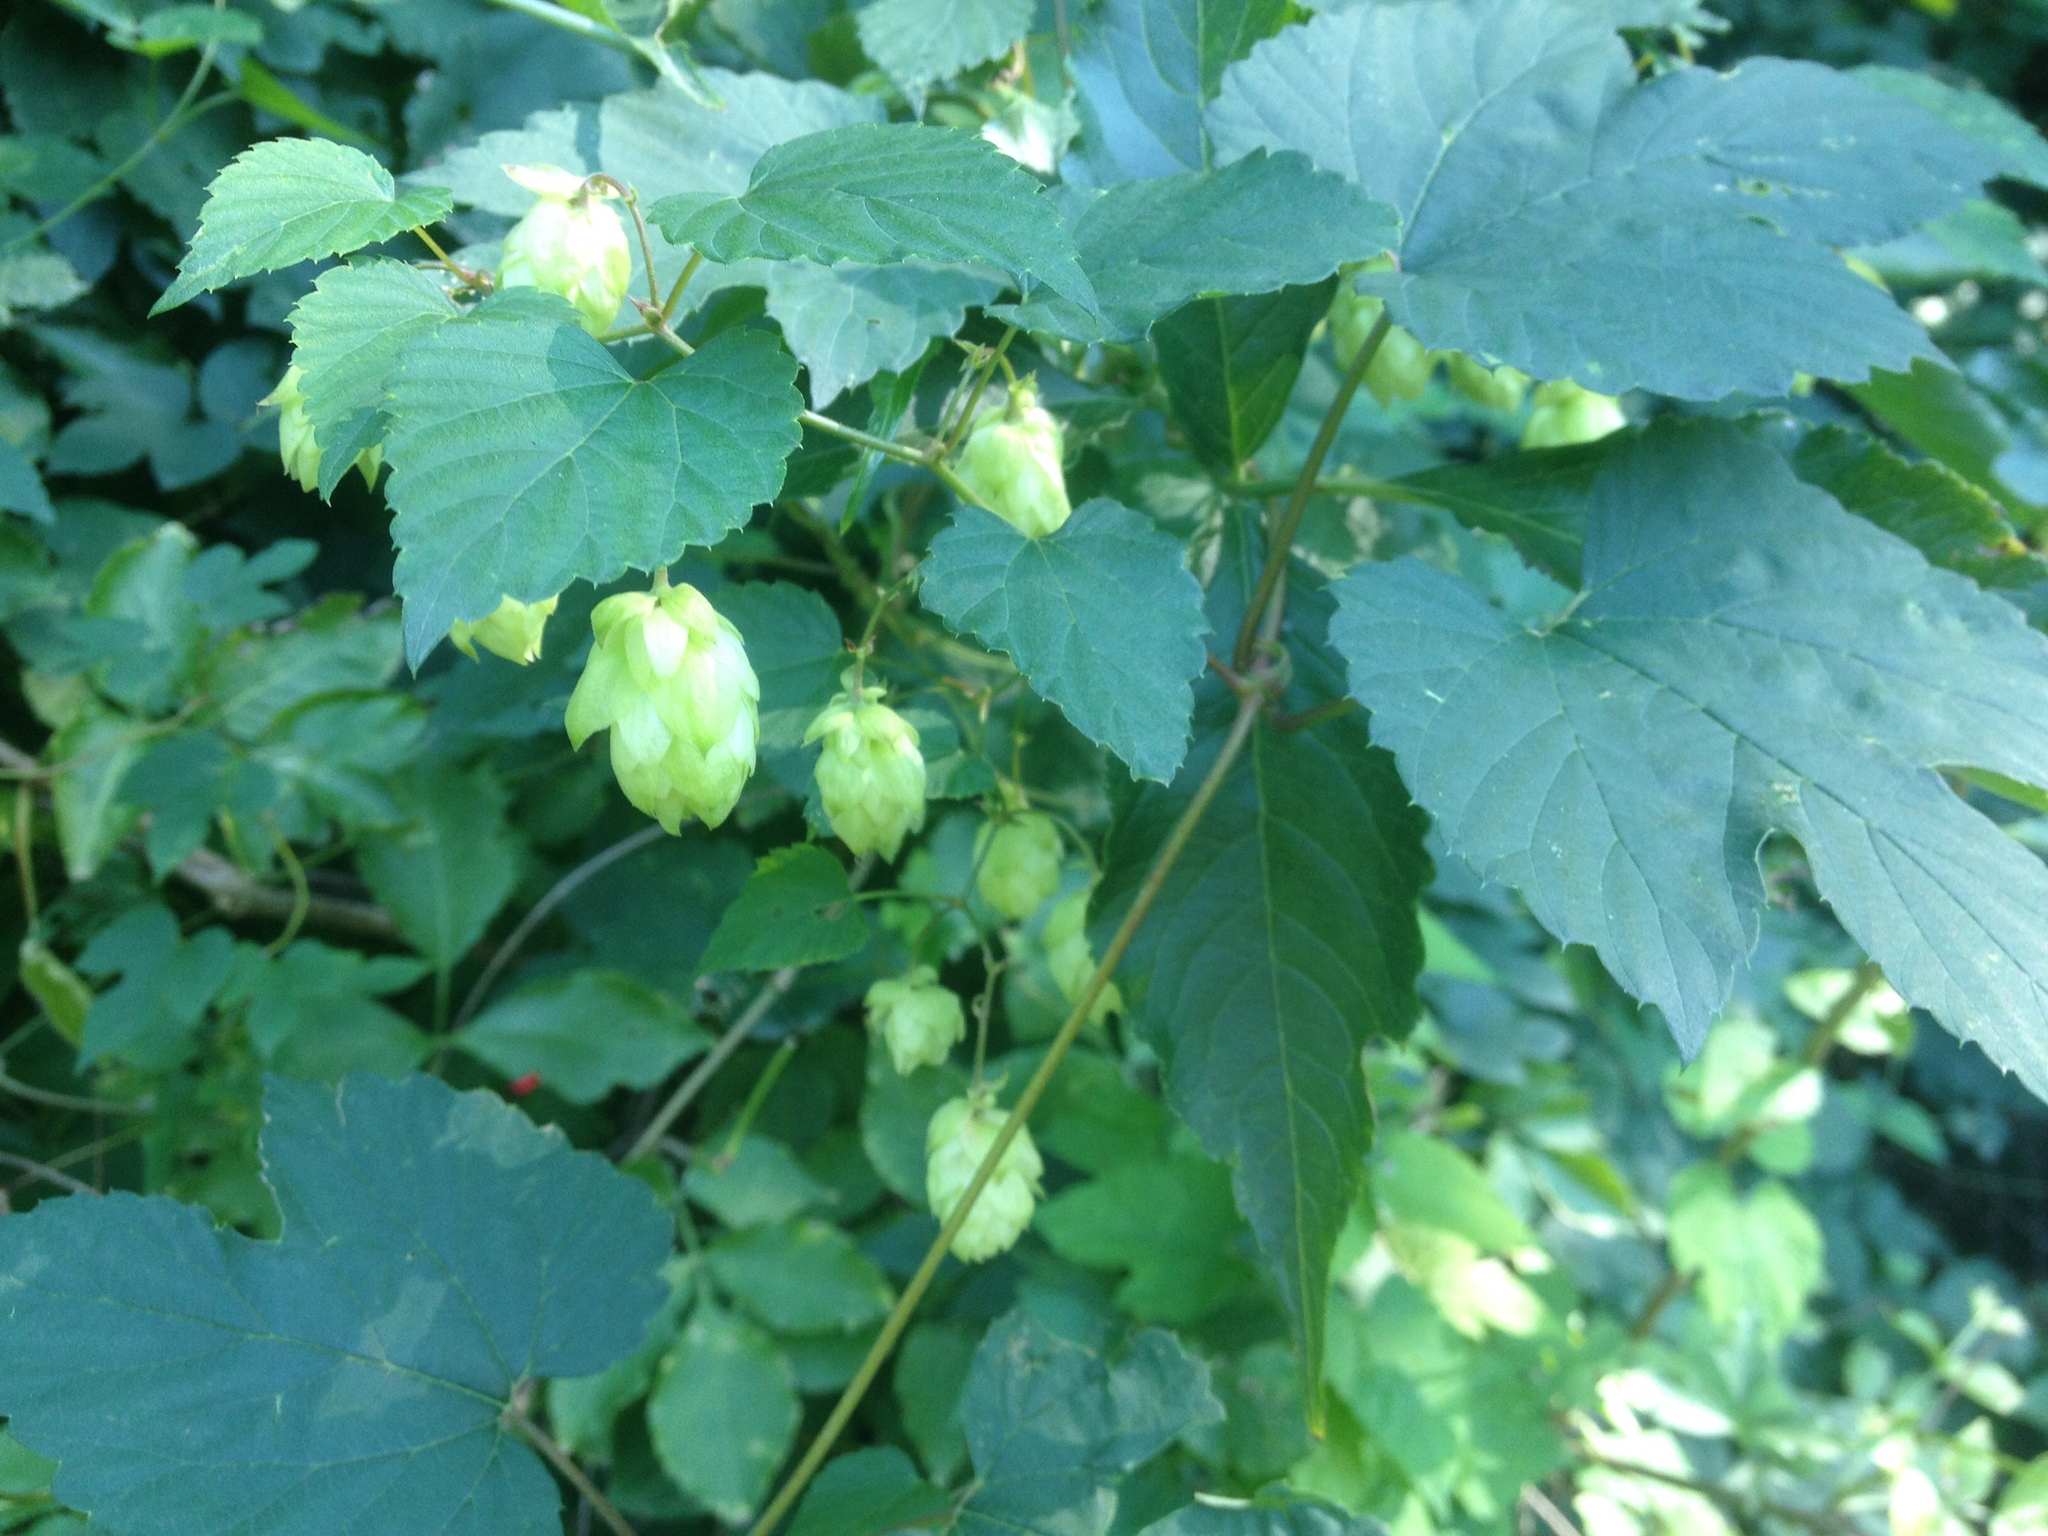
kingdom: Plantae
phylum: Tracheophyta
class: Magnoliopsida
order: Rosales
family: Cannabaceae
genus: Humulus
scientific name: Humulus lupulus
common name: Hop
